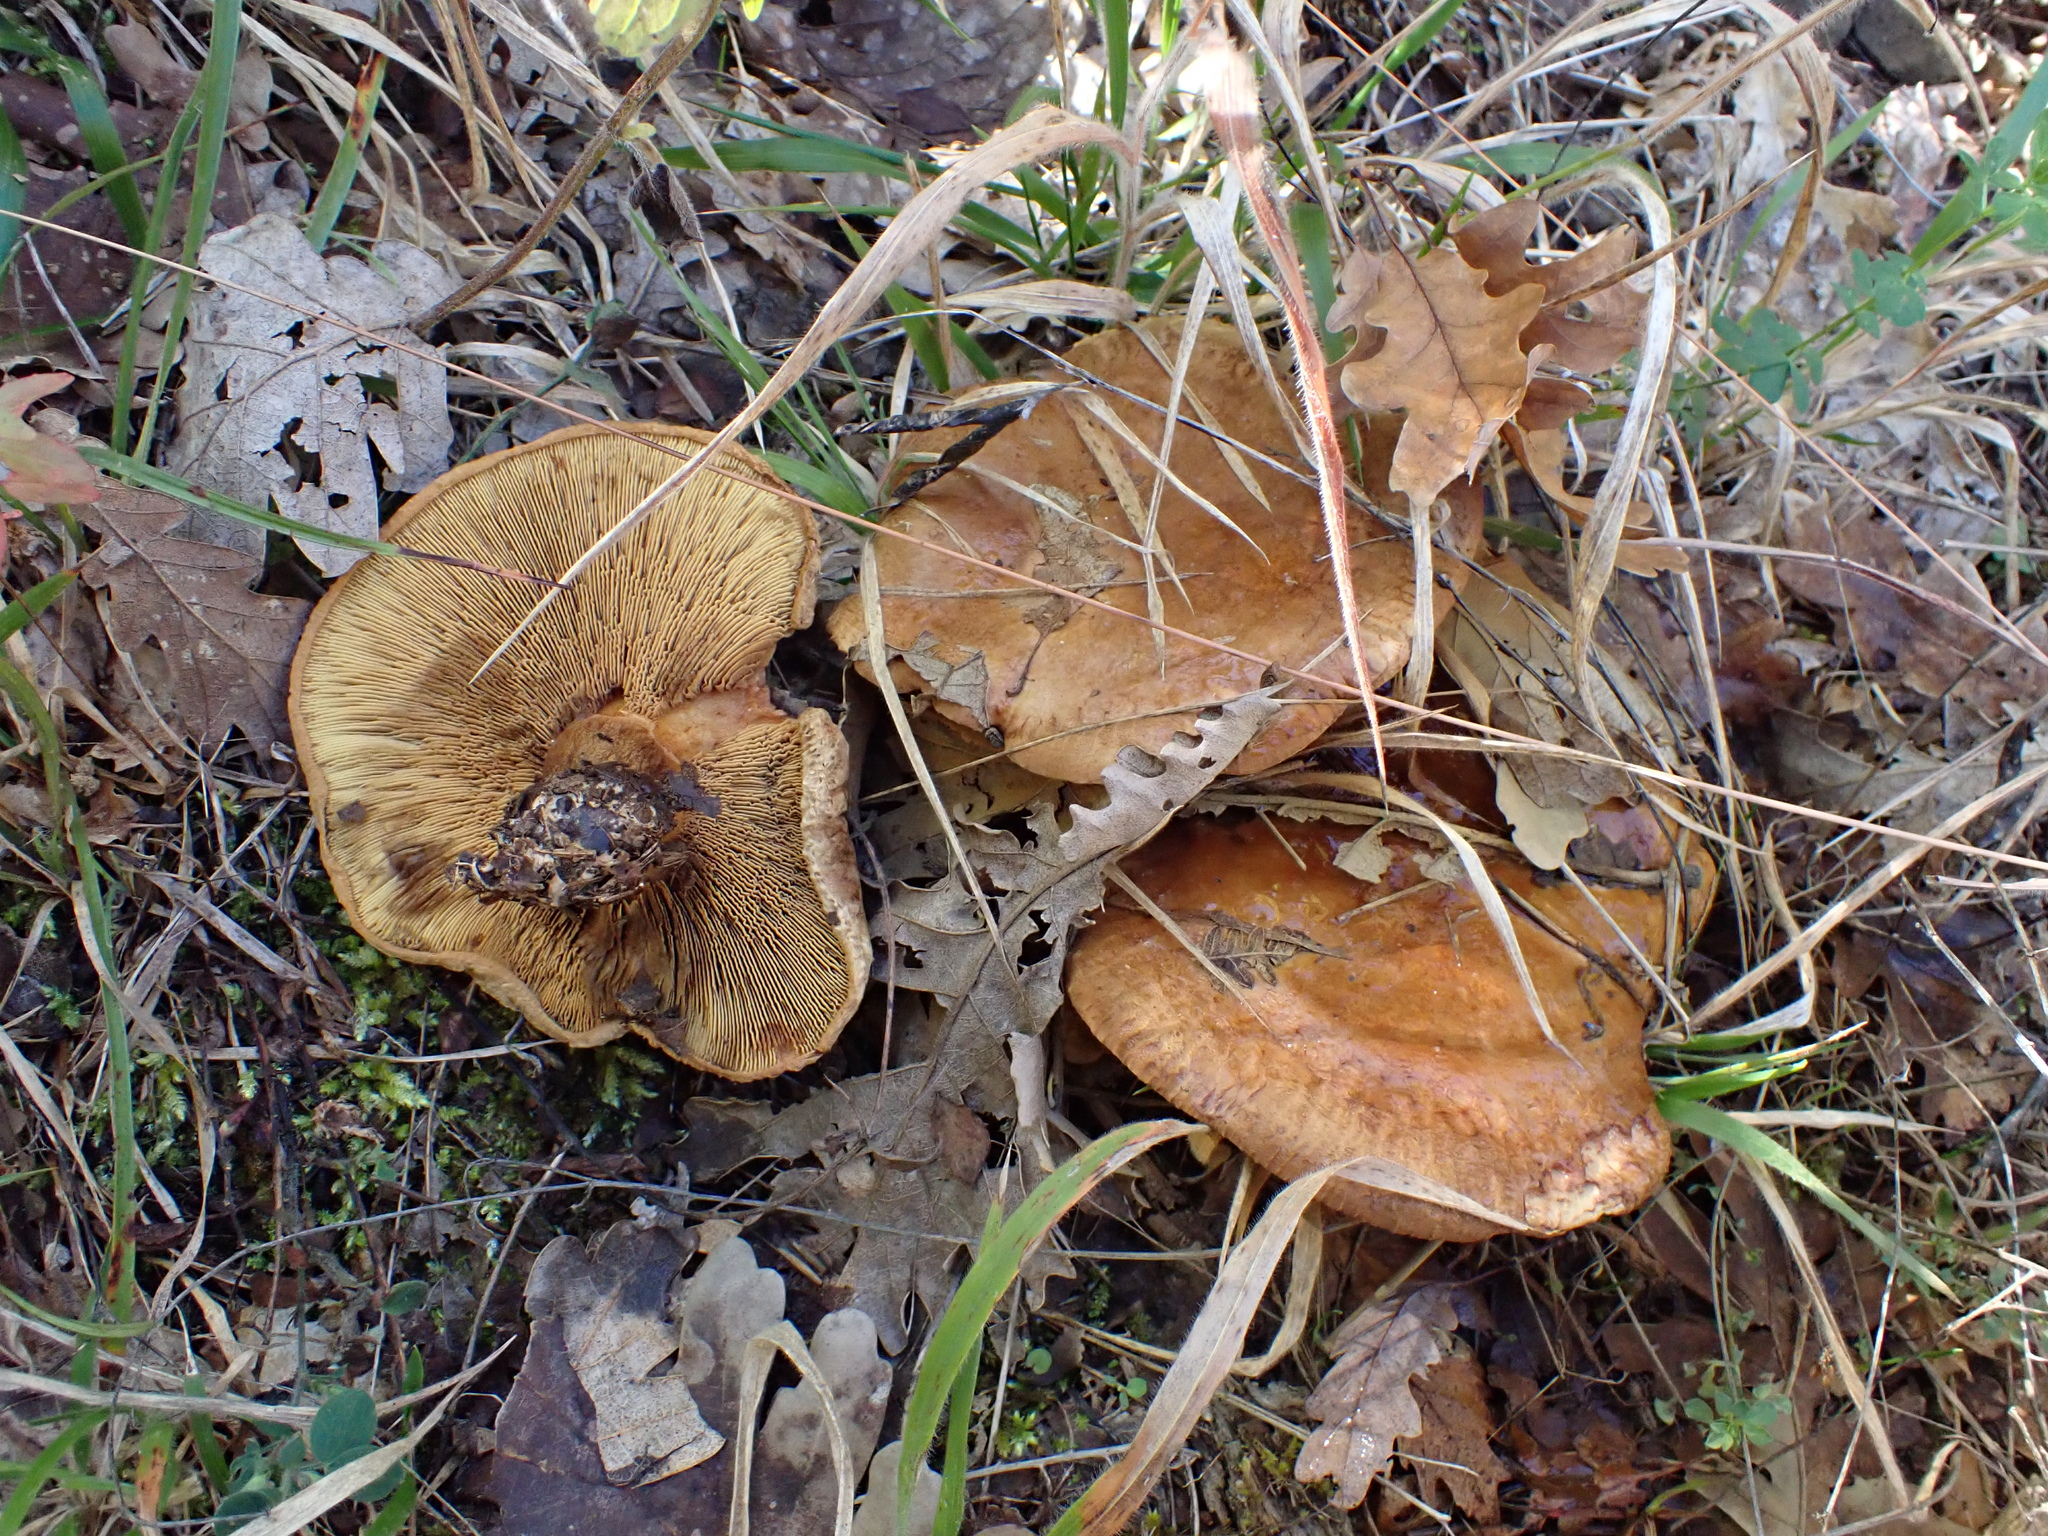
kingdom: Fungi
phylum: Basidiomycota
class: Agaricomycetes
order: Boletales
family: Paxillaceae
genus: Paxillus
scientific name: Paxillus involutus
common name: Brown roll rim
